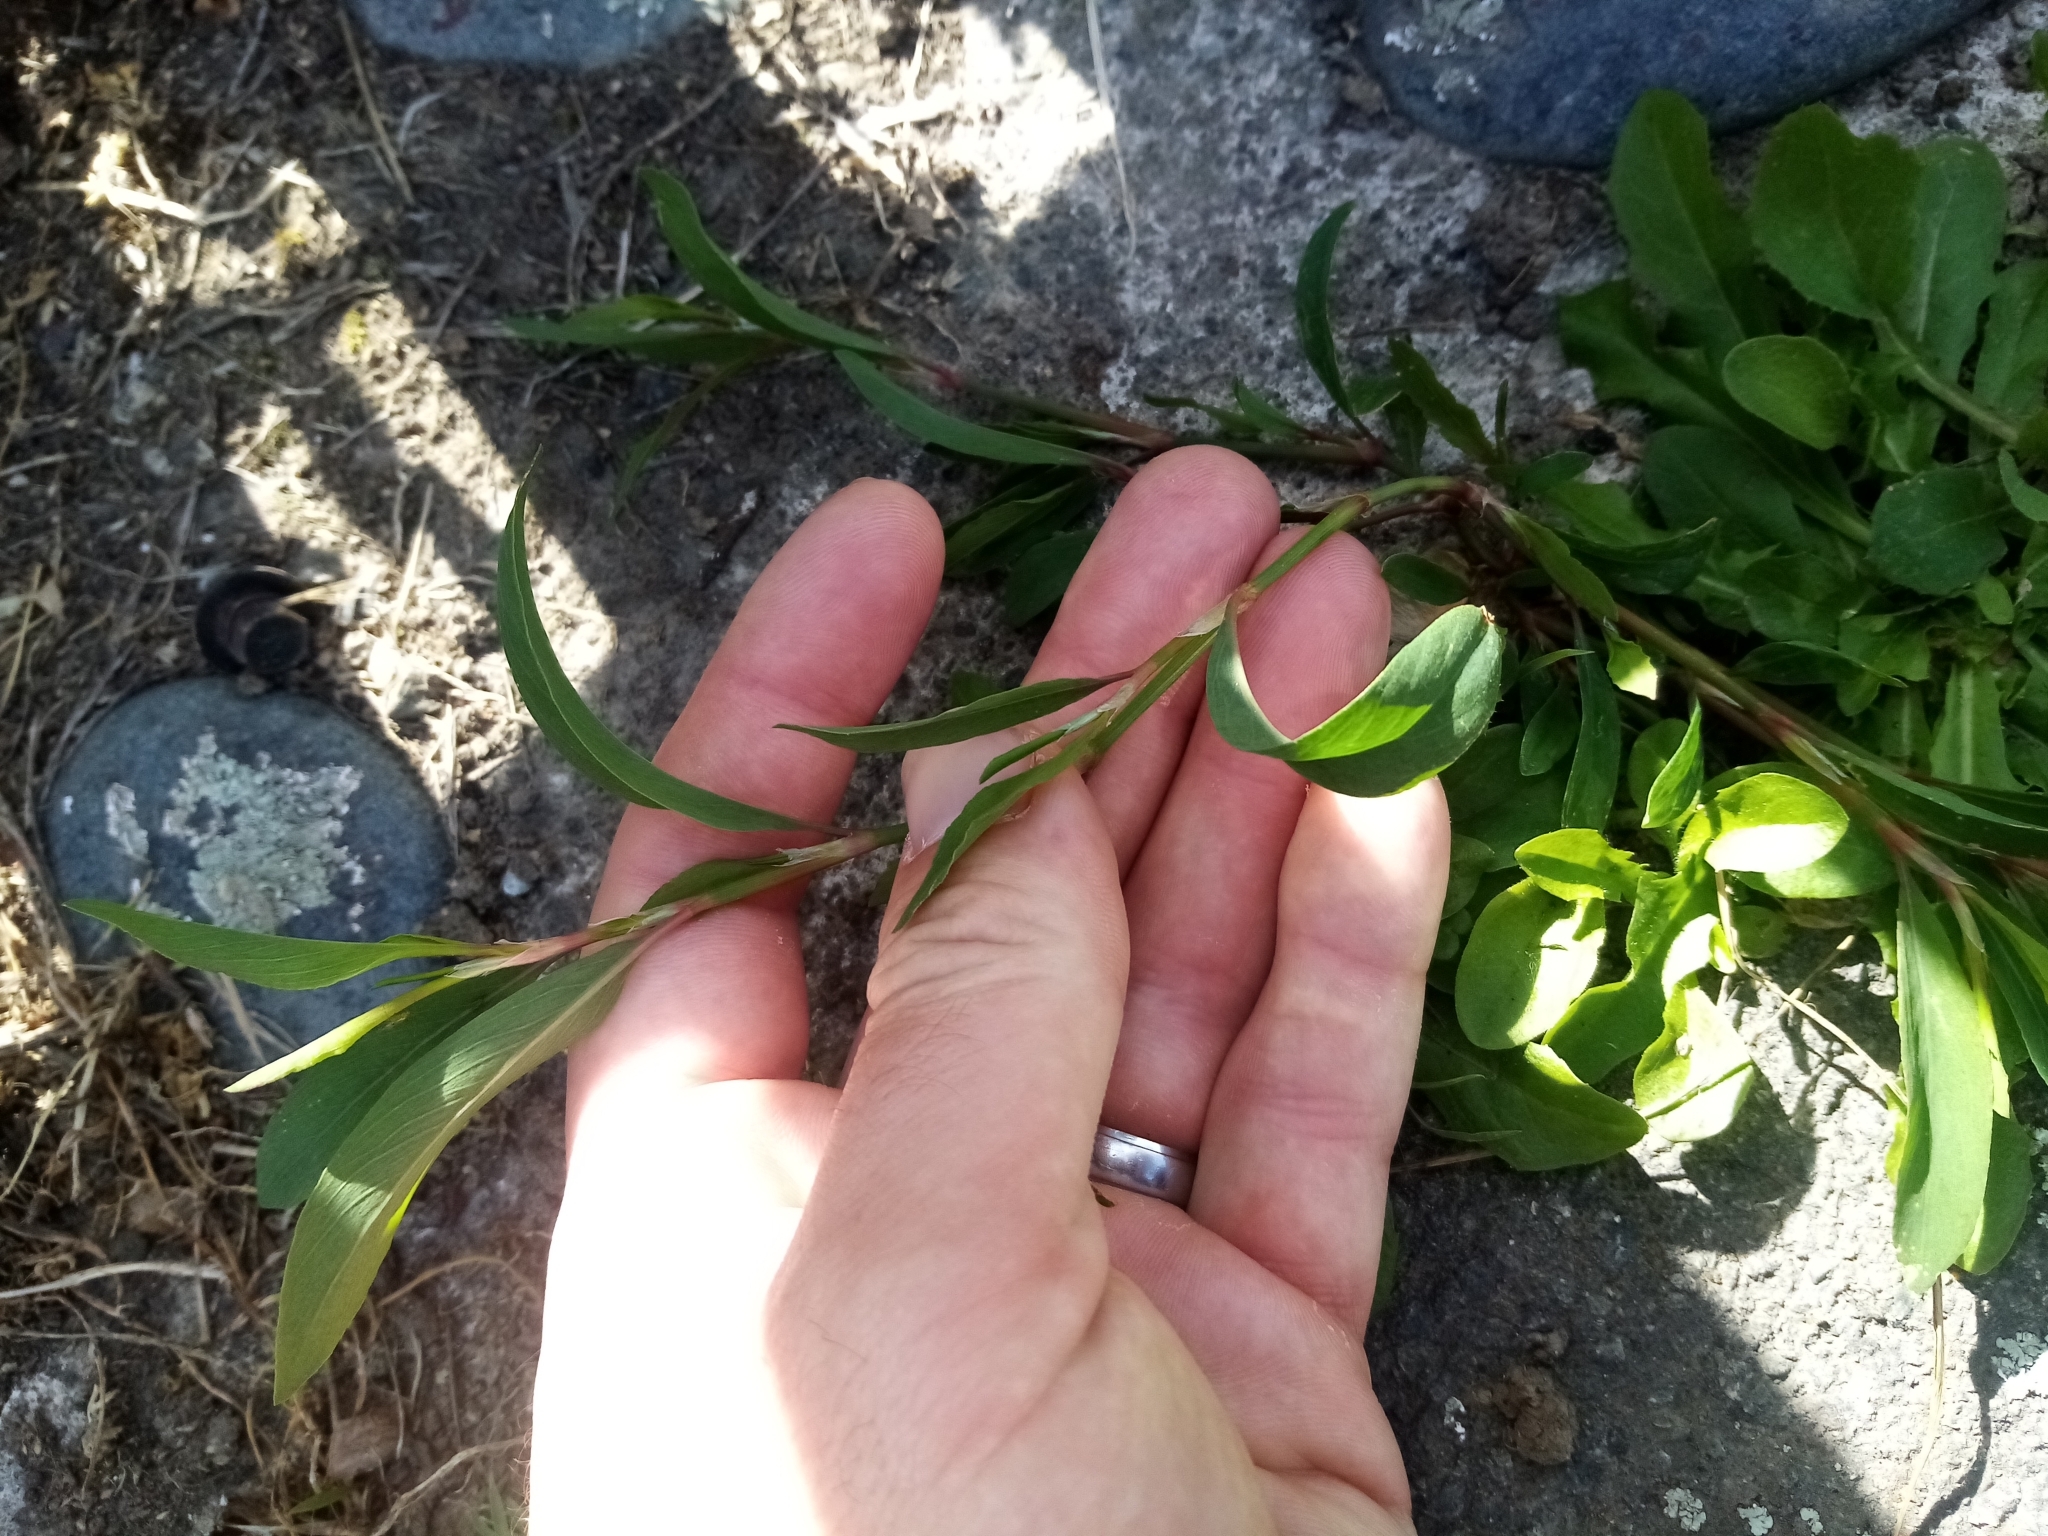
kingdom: Plantae
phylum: Tracheophyta
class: Magnoliopsida
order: Caryophyllales
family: Polygonaceae
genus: Polygonum
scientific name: Polygonum aviculare
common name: Prostrate knotweed
